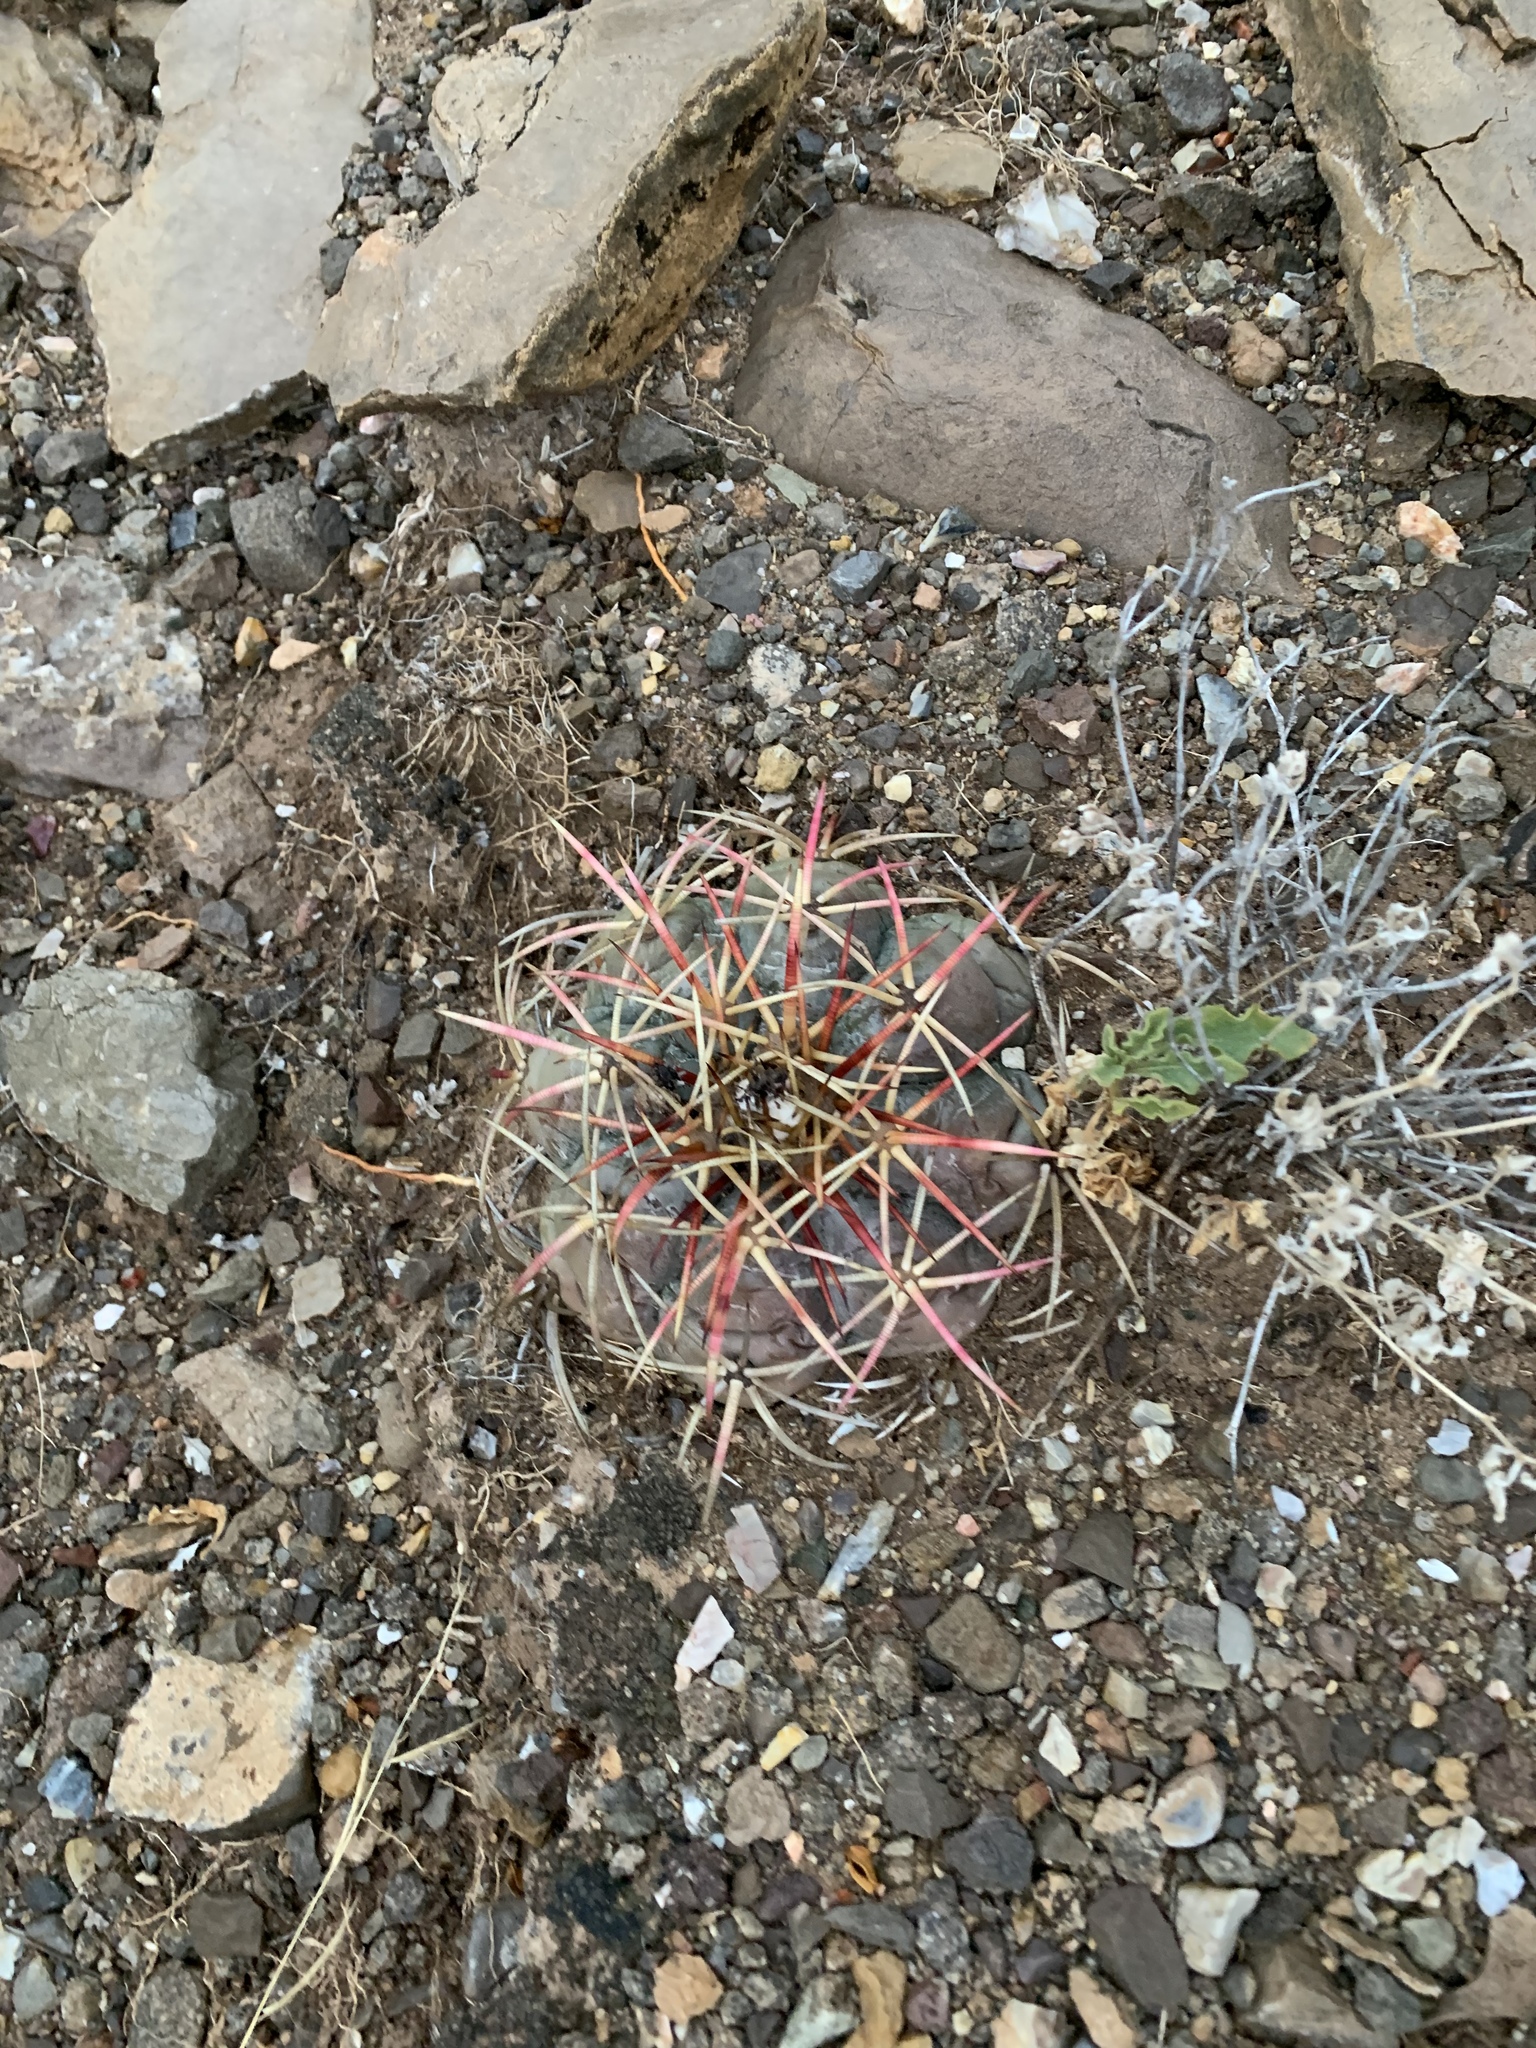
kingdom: Plantae
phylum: Tracheophyta
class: Magnoliopsida
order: Caryophyllales
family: Cactaceae
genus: Echinocactus
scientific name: Echinocactus horizonthalonius
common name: Devilshead
